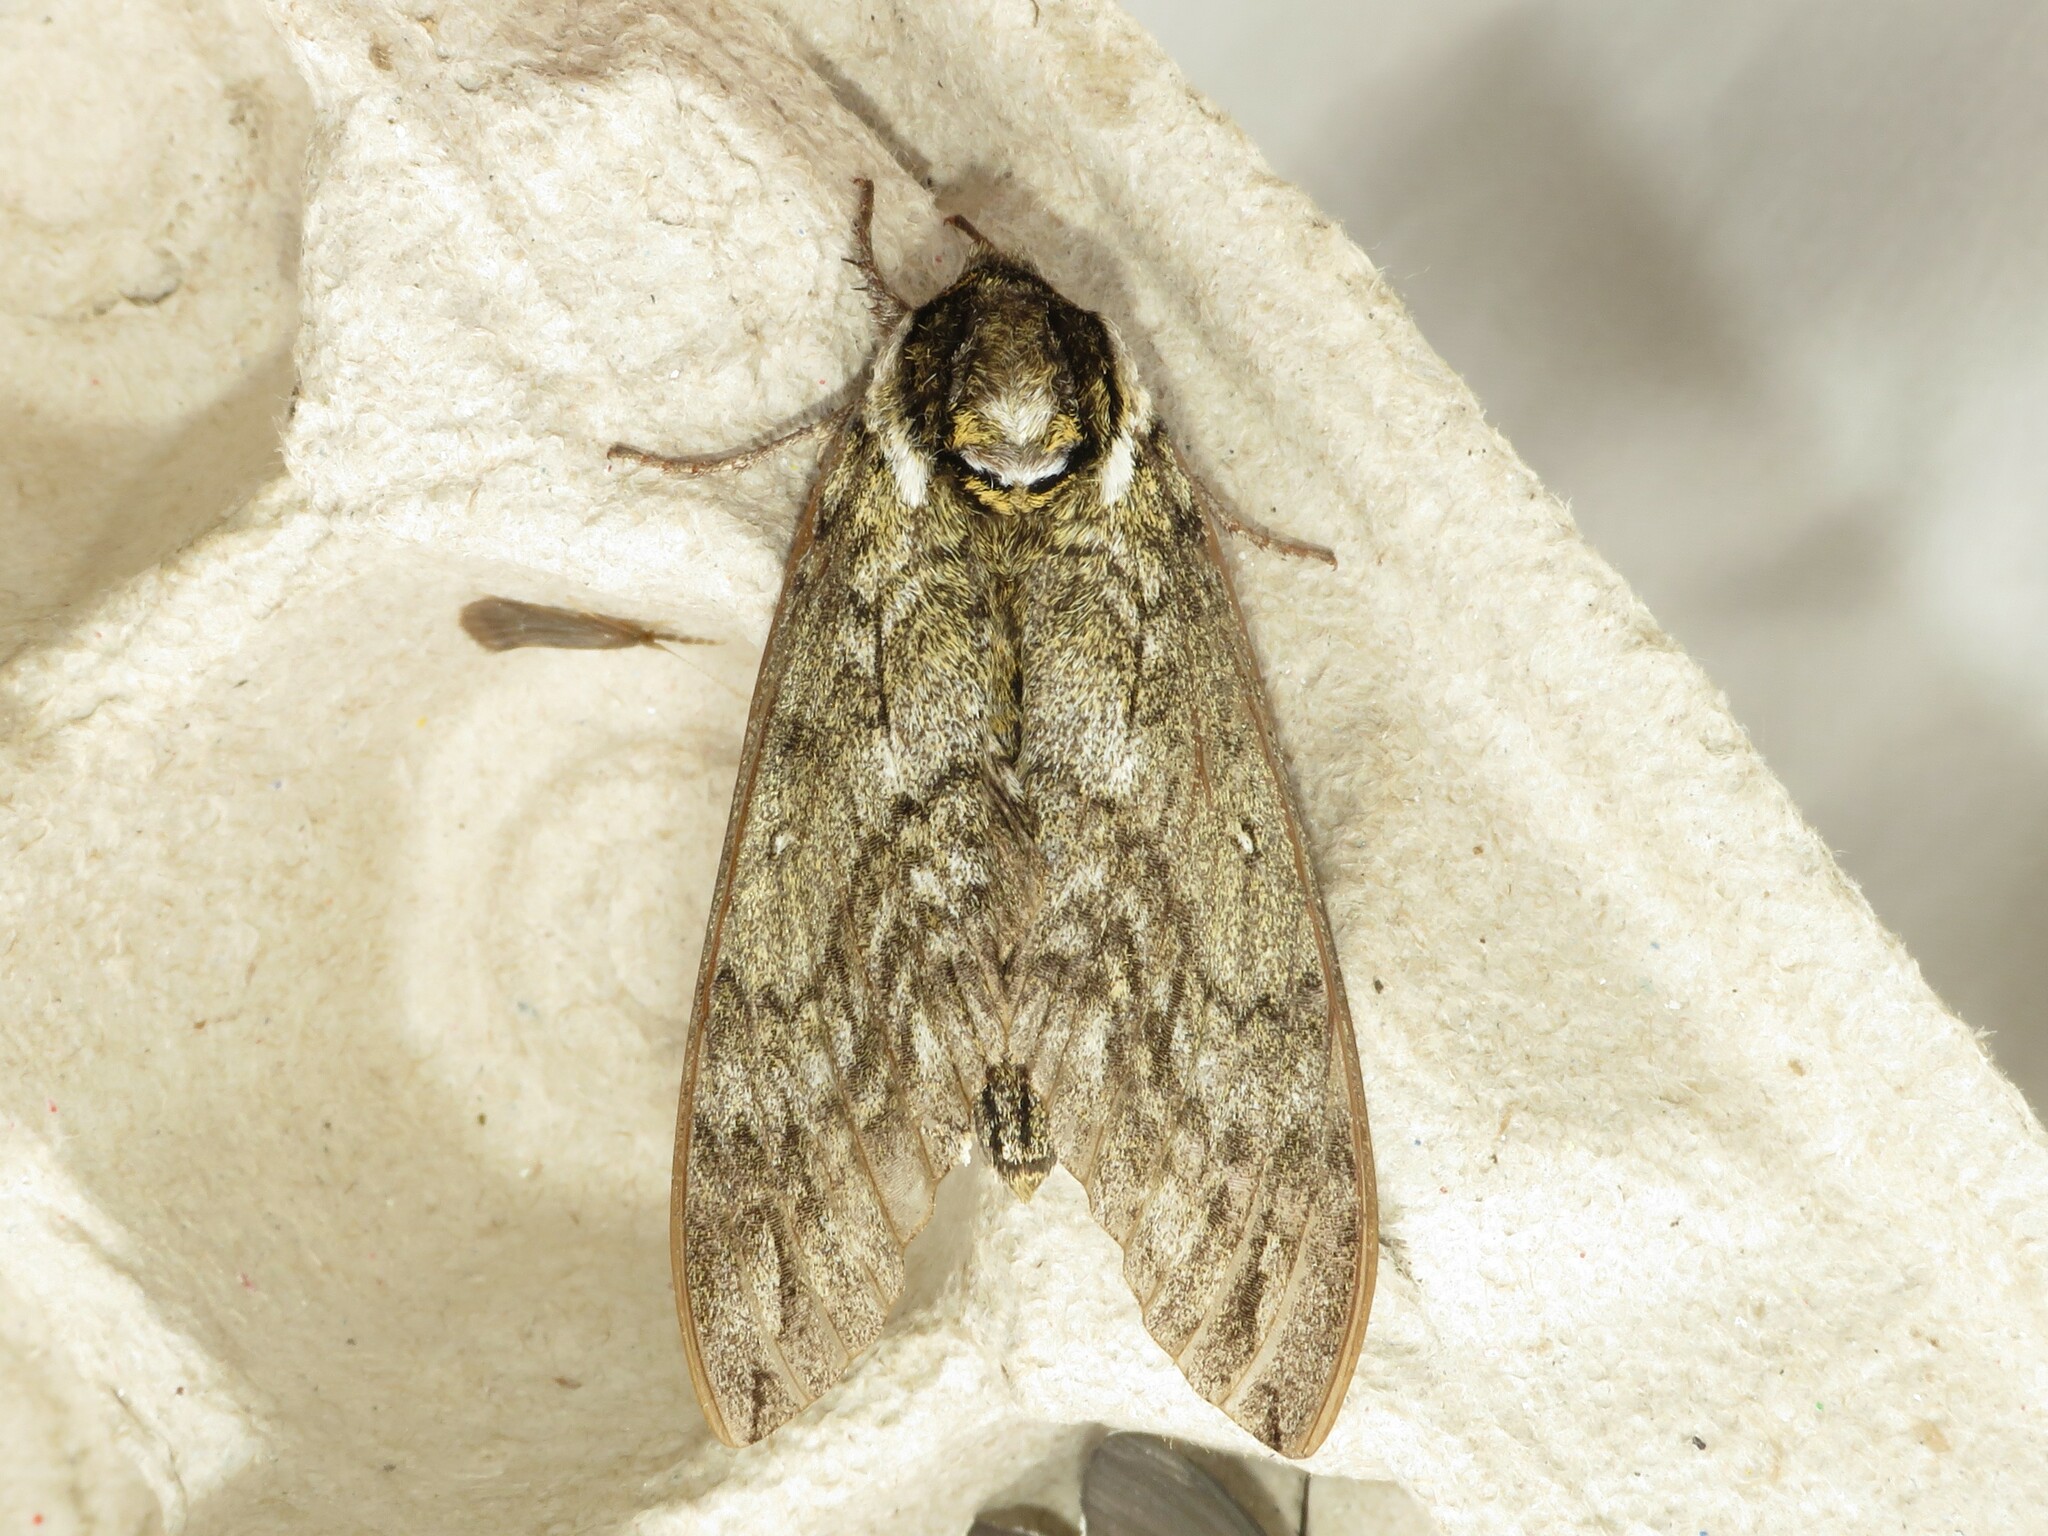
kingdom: Animalia
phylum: Arthropoda
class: Insecta
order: Lepidoptera
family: Sphingidae
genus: Ceratomia
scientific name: Ceratomia undulosa
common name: Waved sphinx
